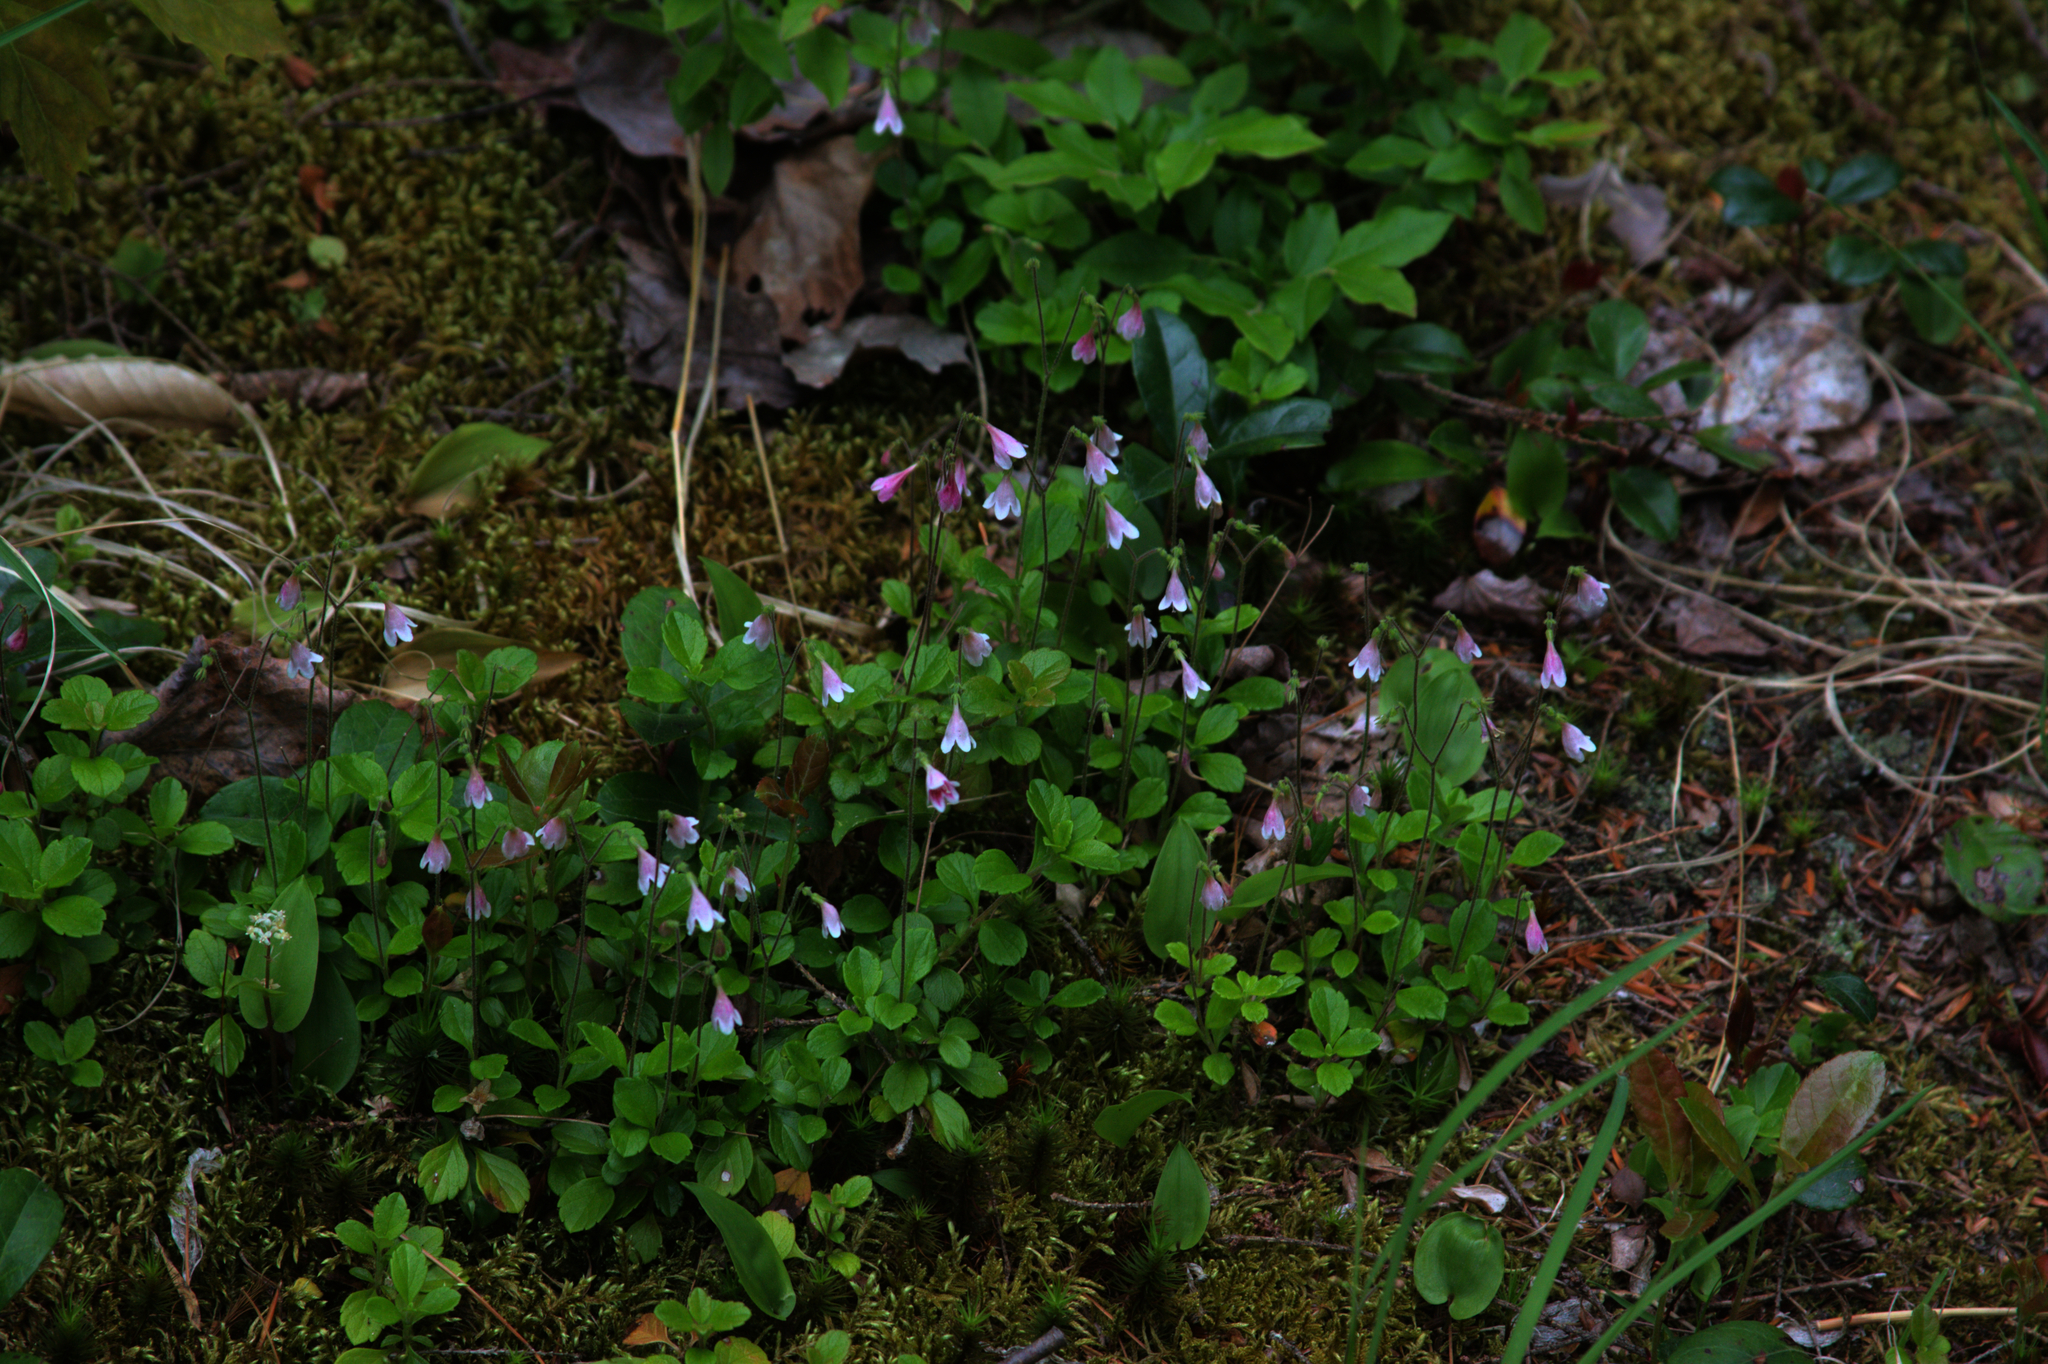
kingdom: Plantae
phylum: Tracheophyta
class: Magnoliopsida
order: Dipsacales
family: Caprifoliaceae
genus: Linnaea
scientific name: Linnaea borealis
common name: Twinflower
